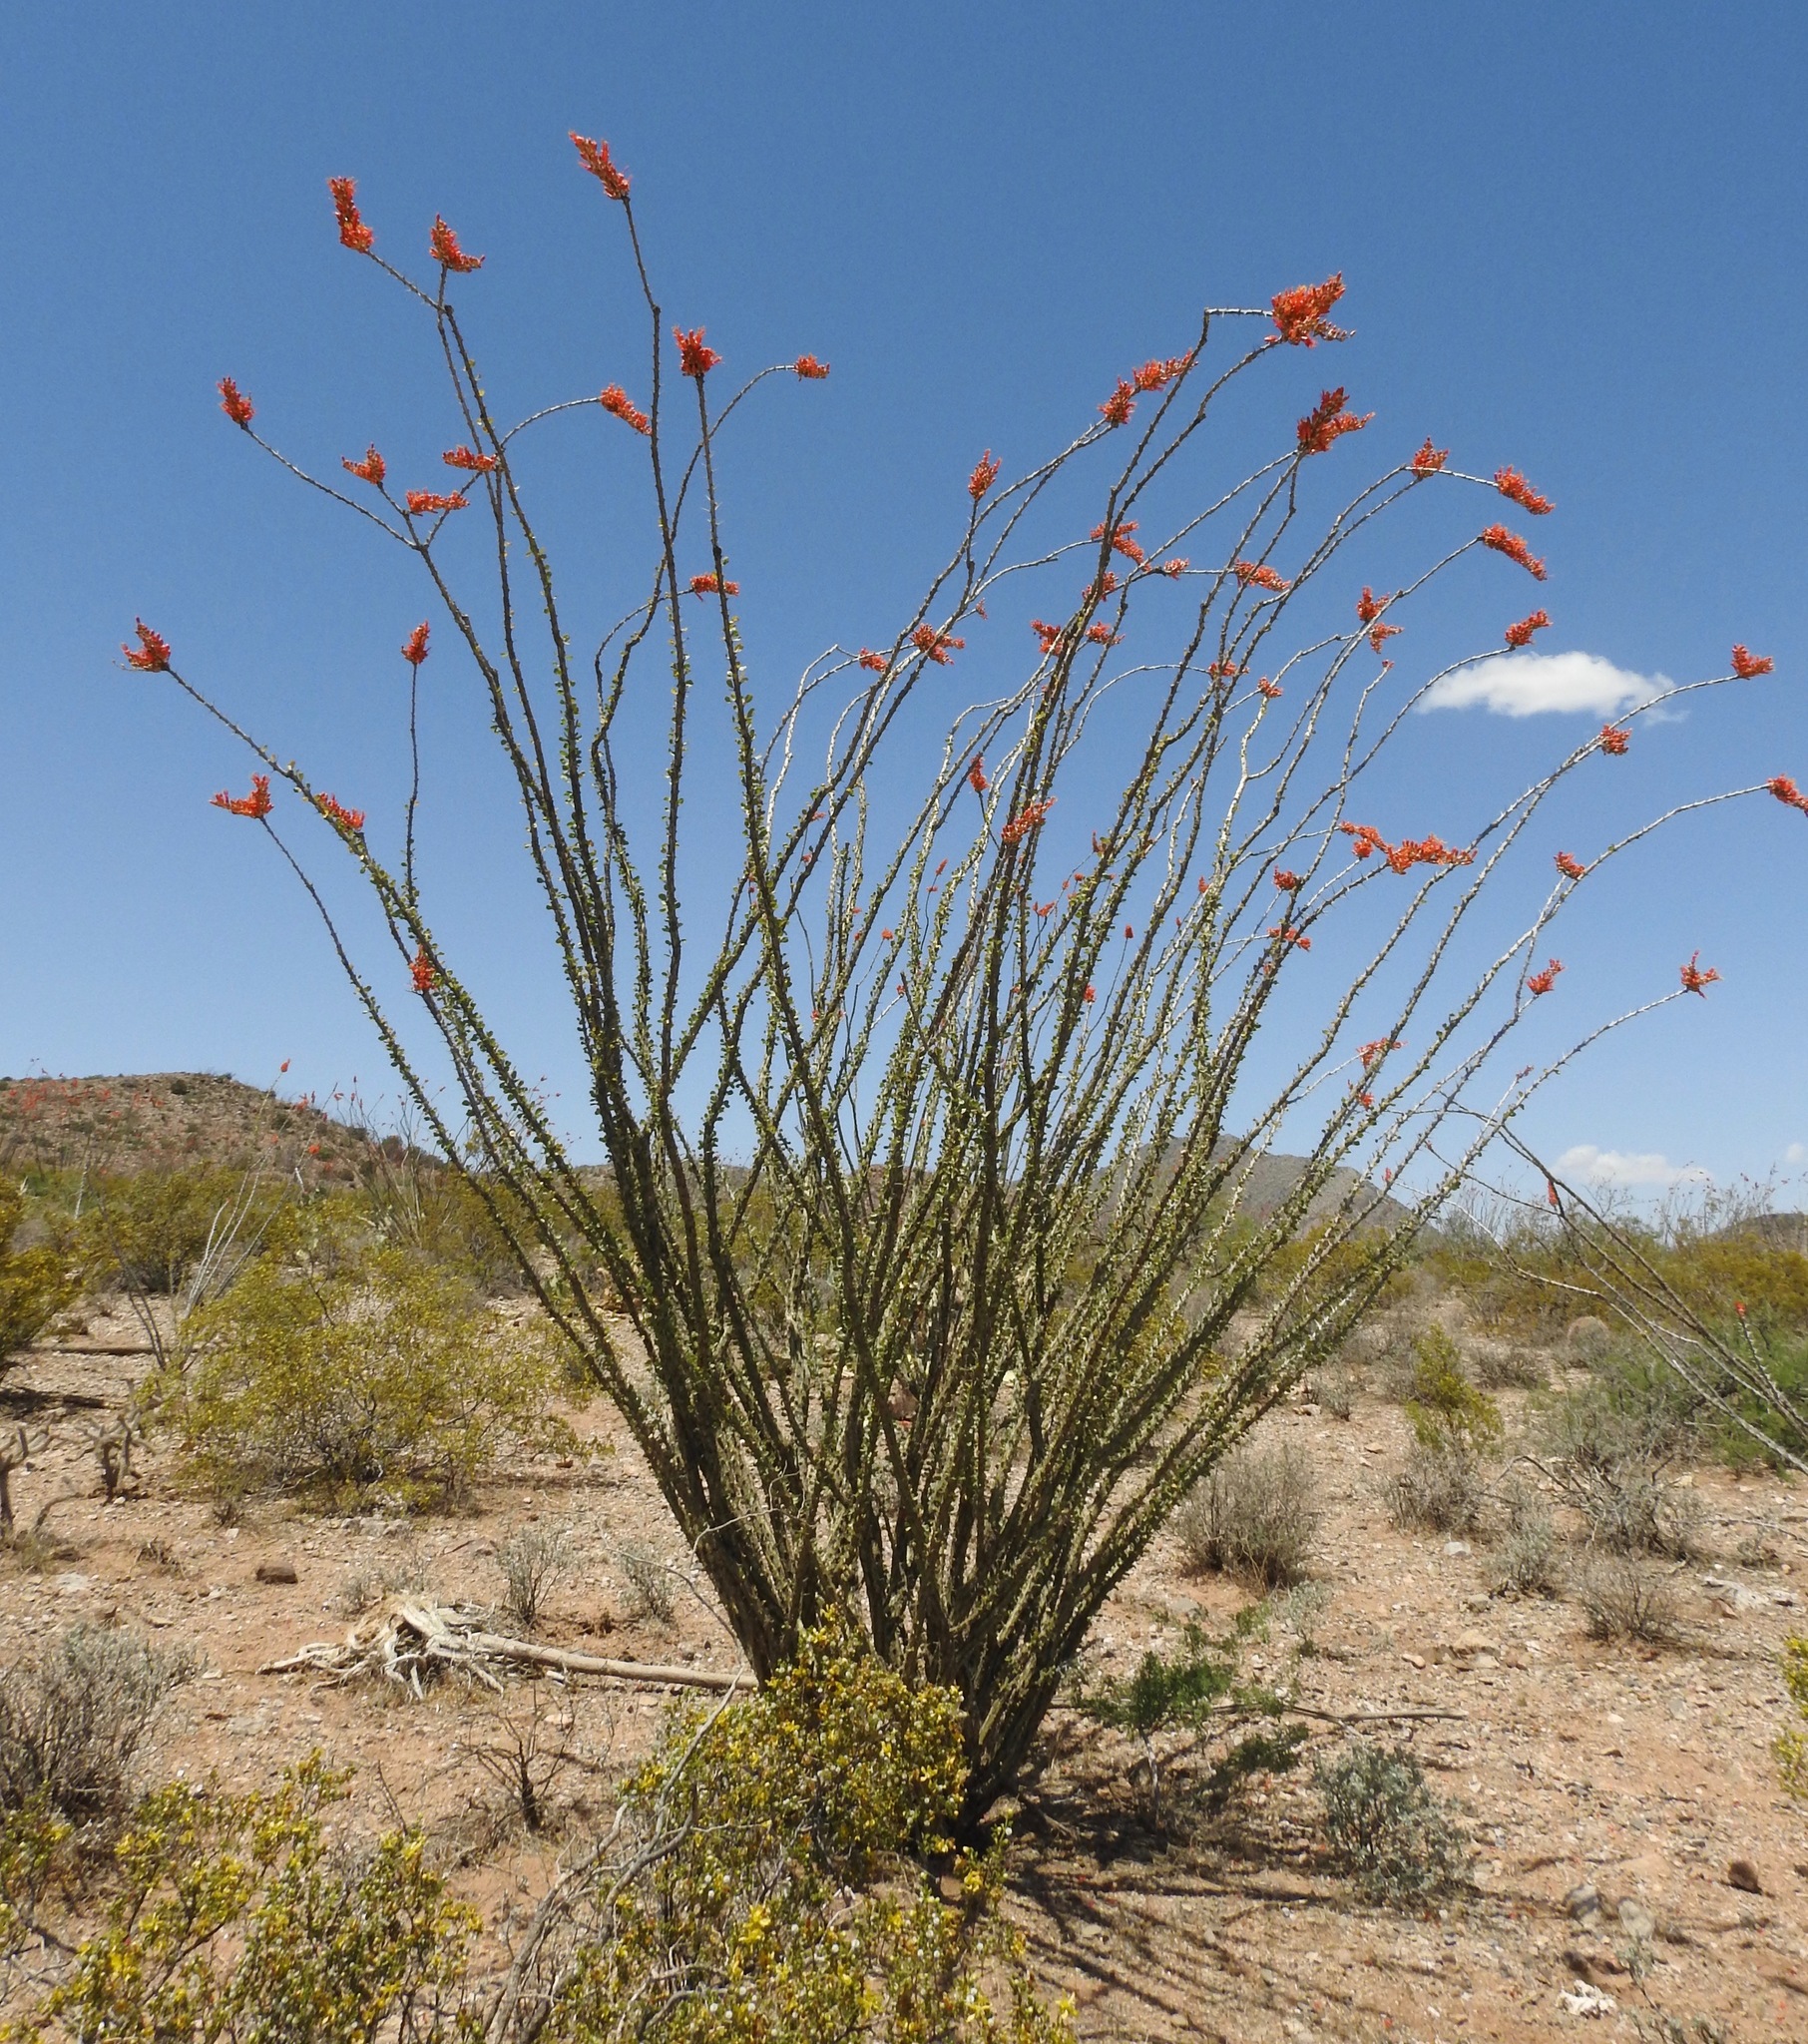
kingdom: Plantae
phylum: Tracheophyta
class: Magnoliopsida
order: Ericales
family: Fouquieriaceae
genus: Fouquieria
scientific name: Fouquieria splendens
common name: Vine-cactus
